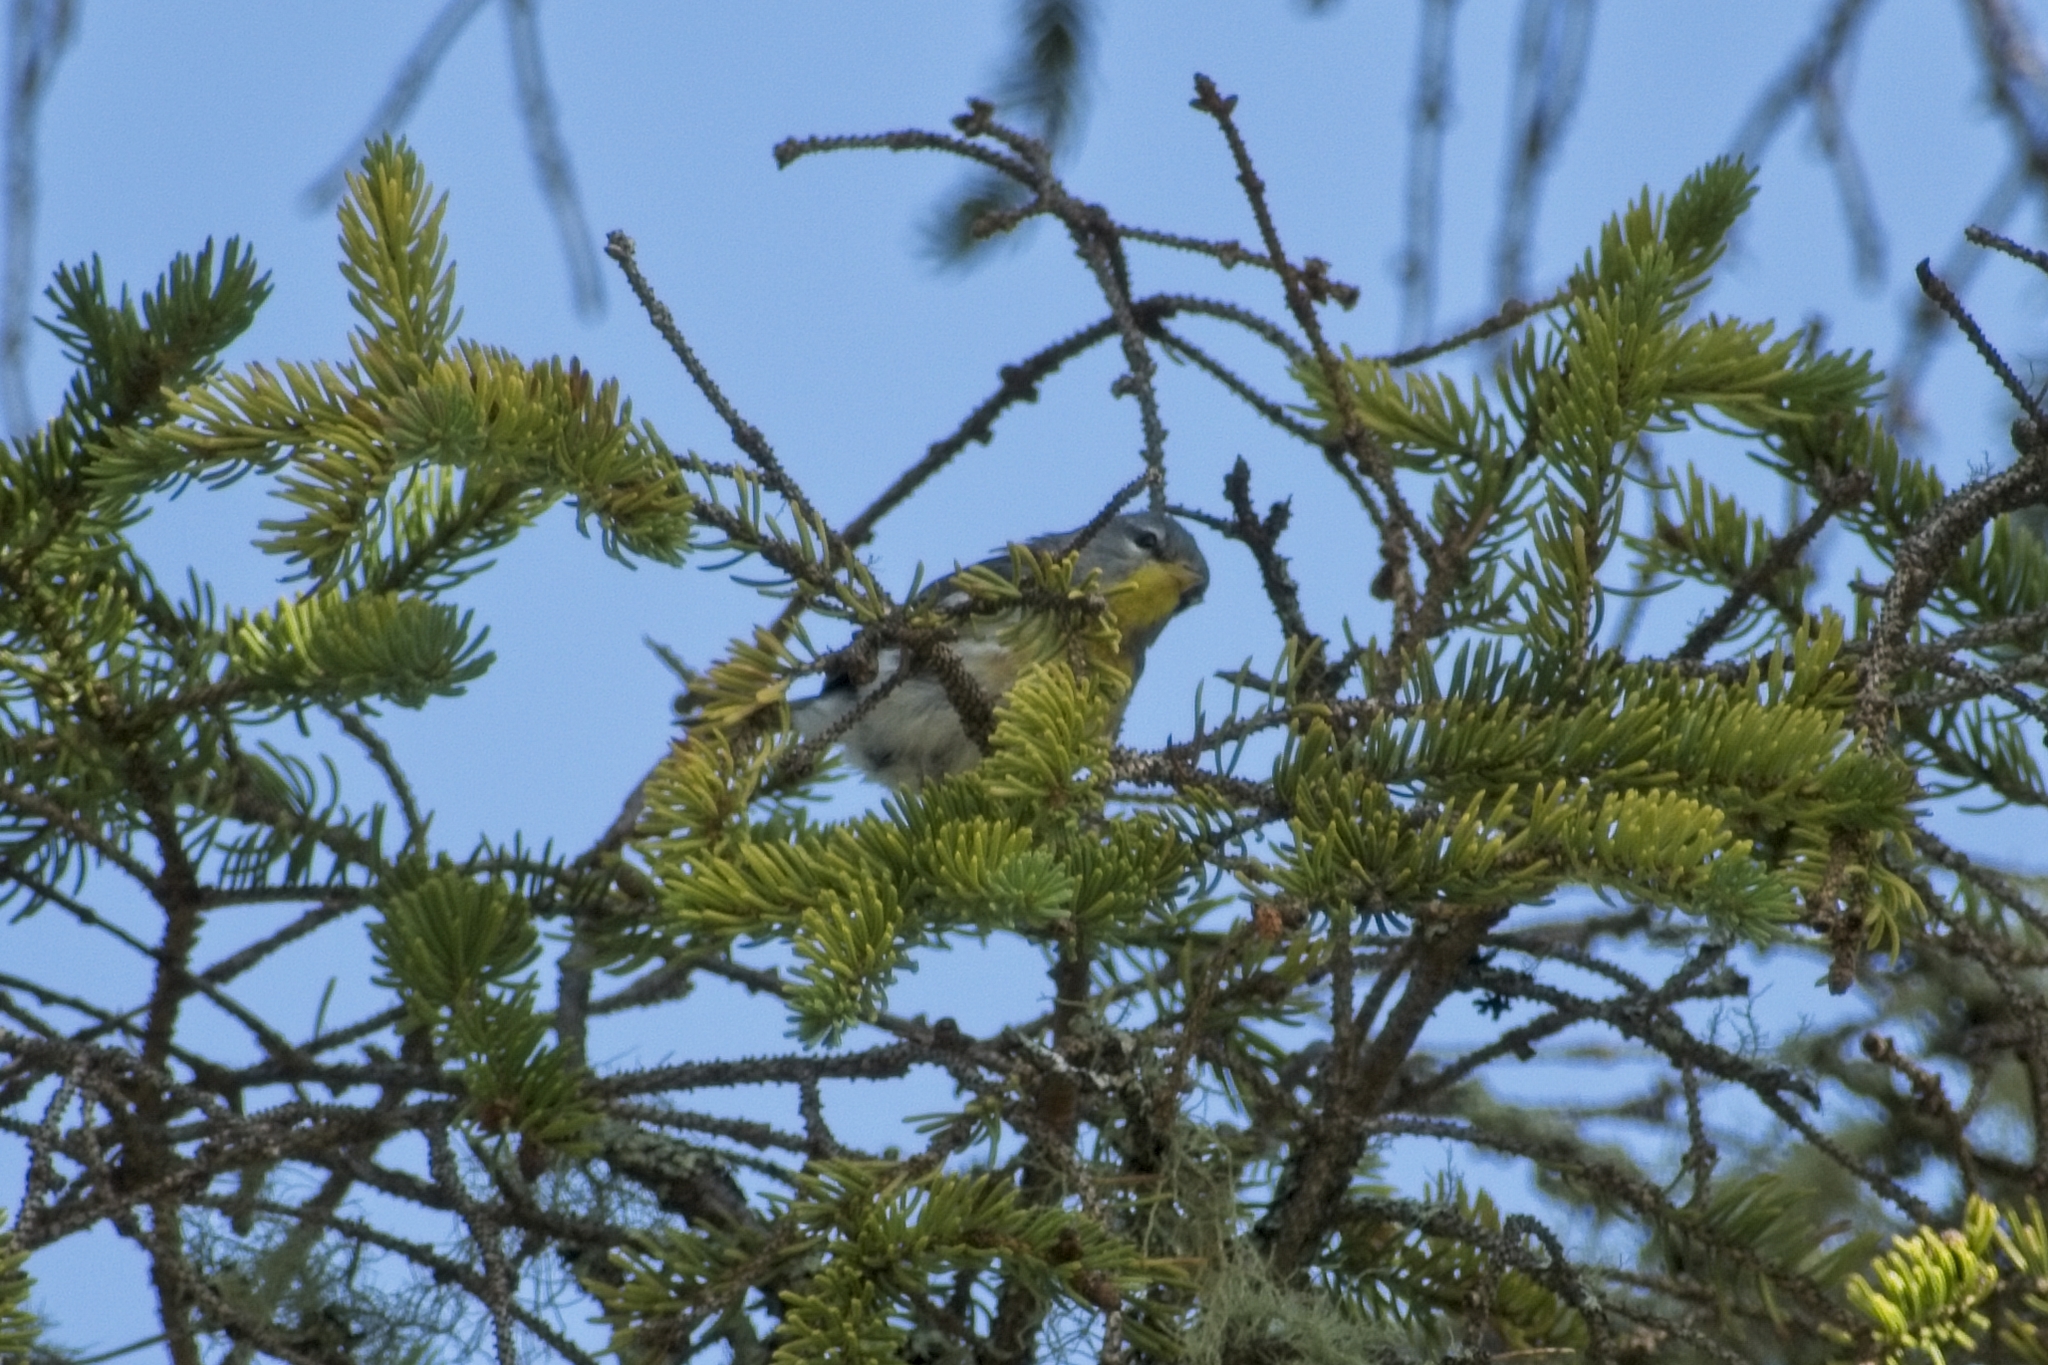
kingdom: Animalia
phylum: Chordata
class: Aves
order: Passeriformes
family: Parulidae
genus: Setophaga
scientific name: Setophaga americana
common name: Northern parula
